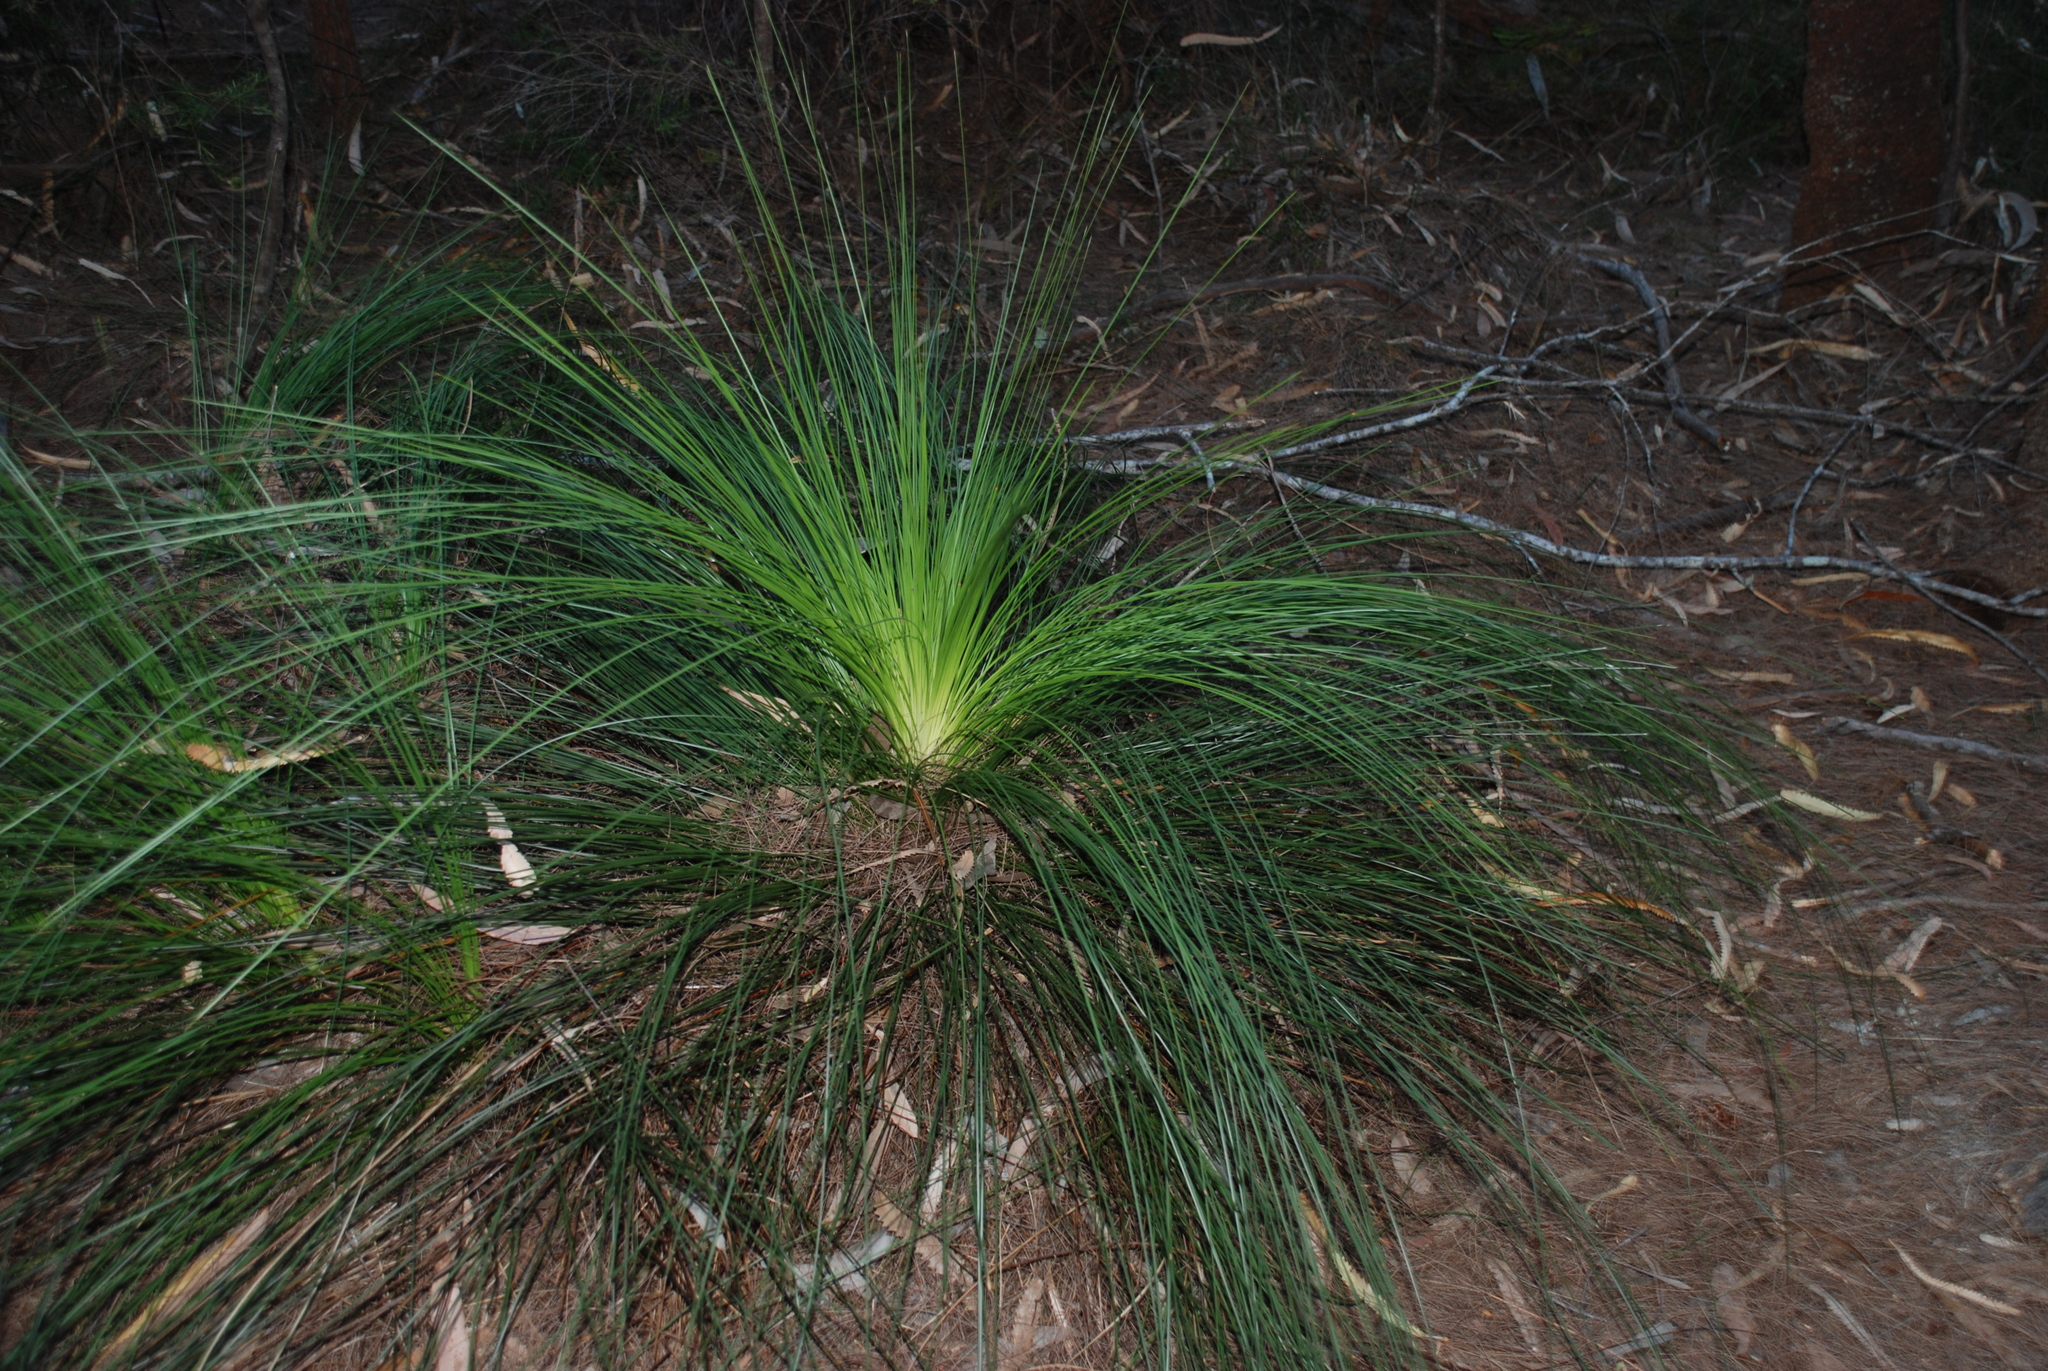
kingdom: Plantae
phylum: Tracheophyta
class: Liliopsida
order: Asparagales
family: Asphodelaceae
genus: Xanthorrhoea
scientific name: Xanthorrhoea johnsonii
